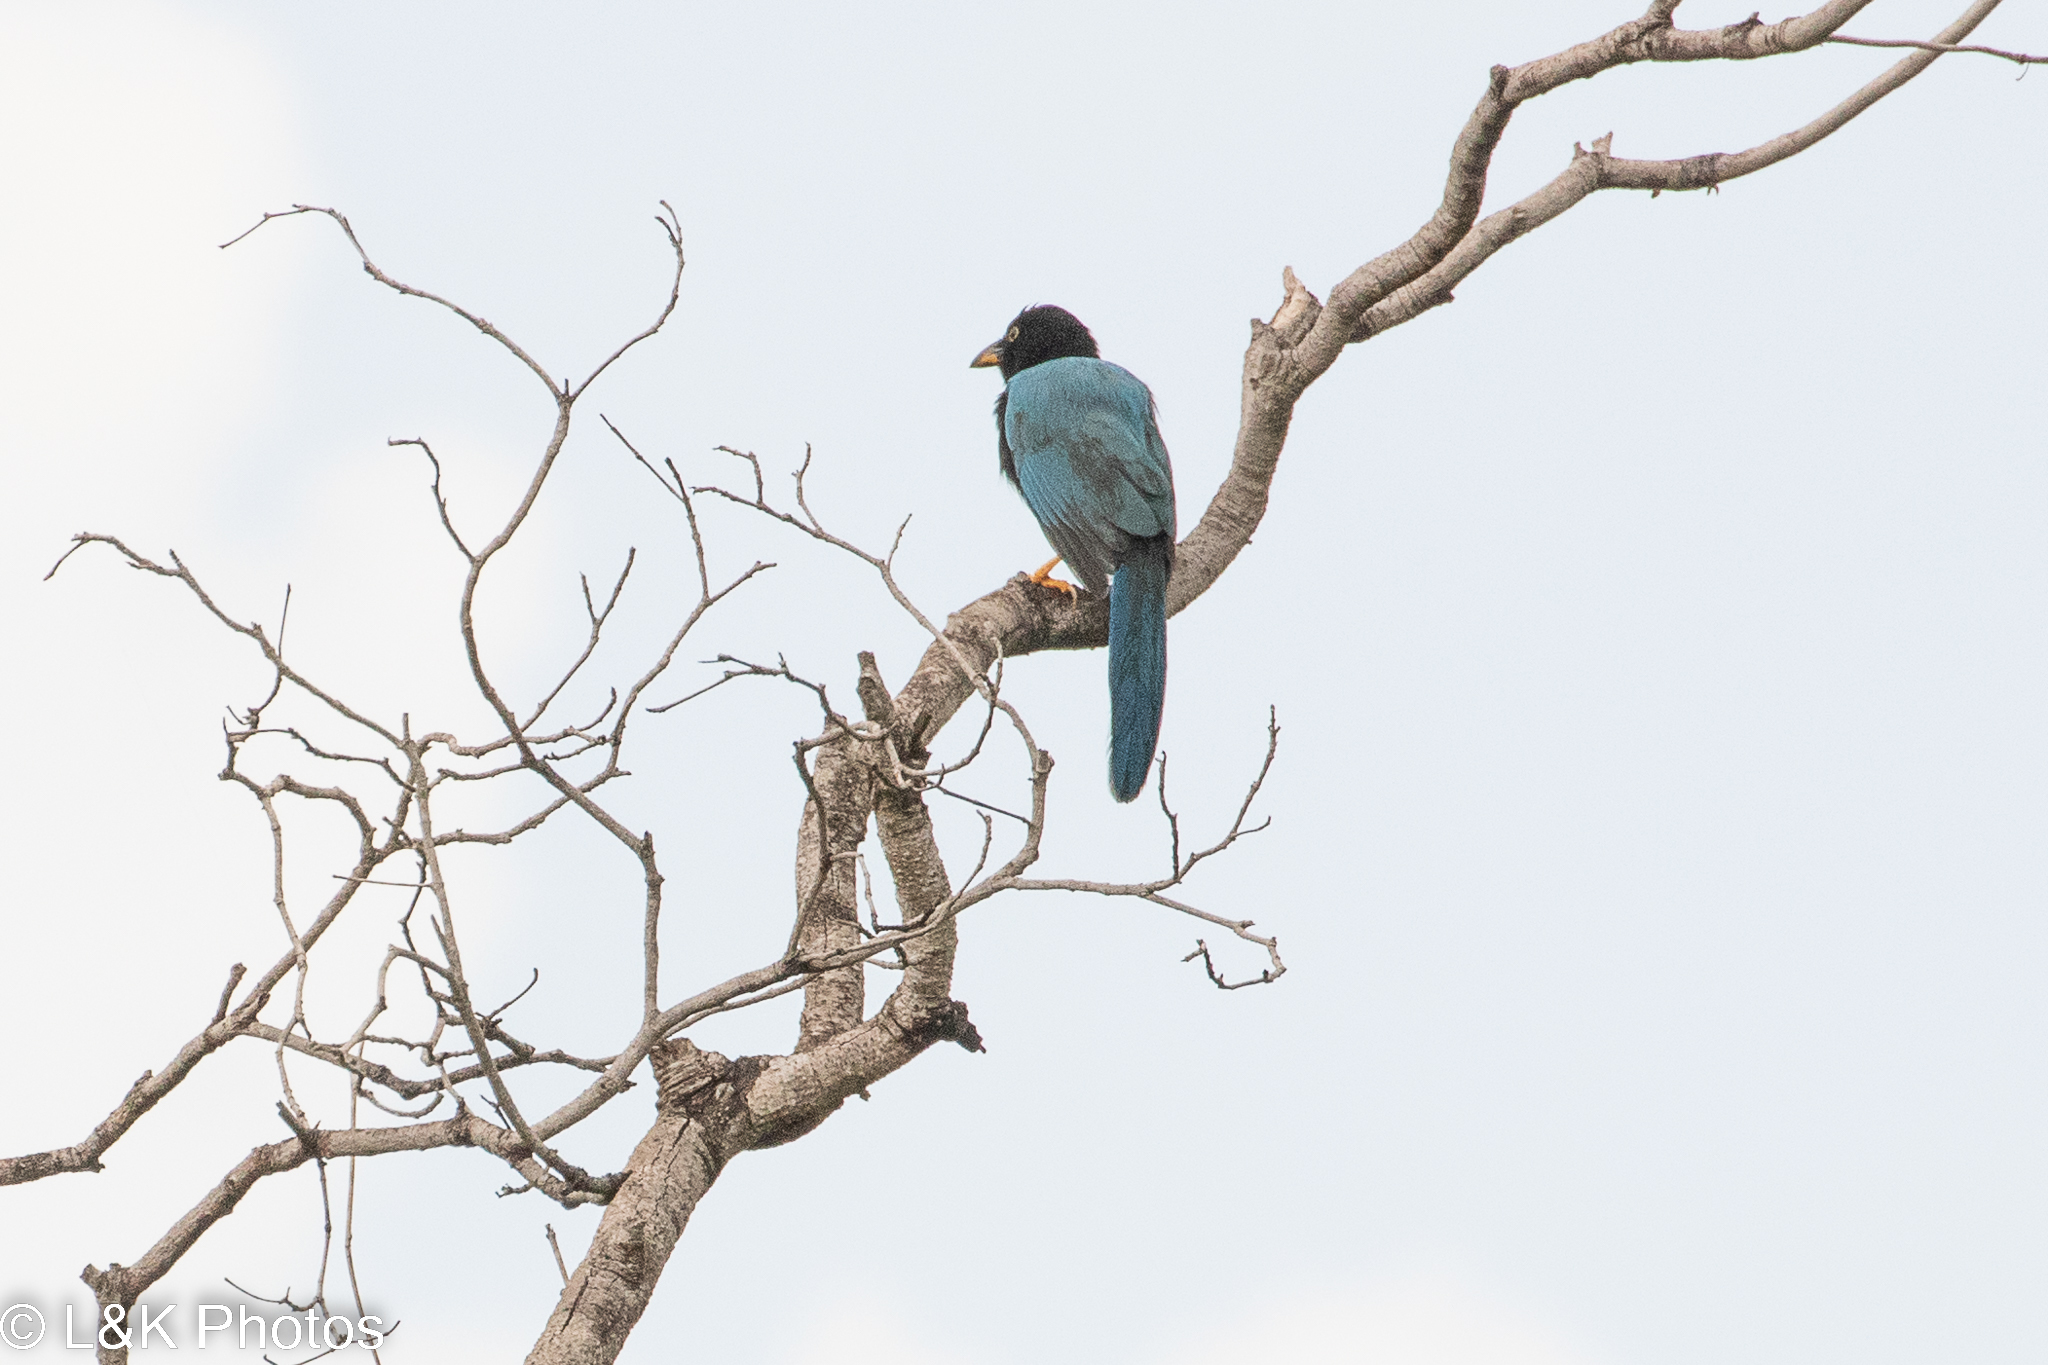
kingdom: Animalia
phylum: Chordata
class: Aves
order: Passeriformes
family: Corvidae
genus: Cyanocorax
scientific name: Cyanocorax yucatanicus
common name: Yucatan jay
